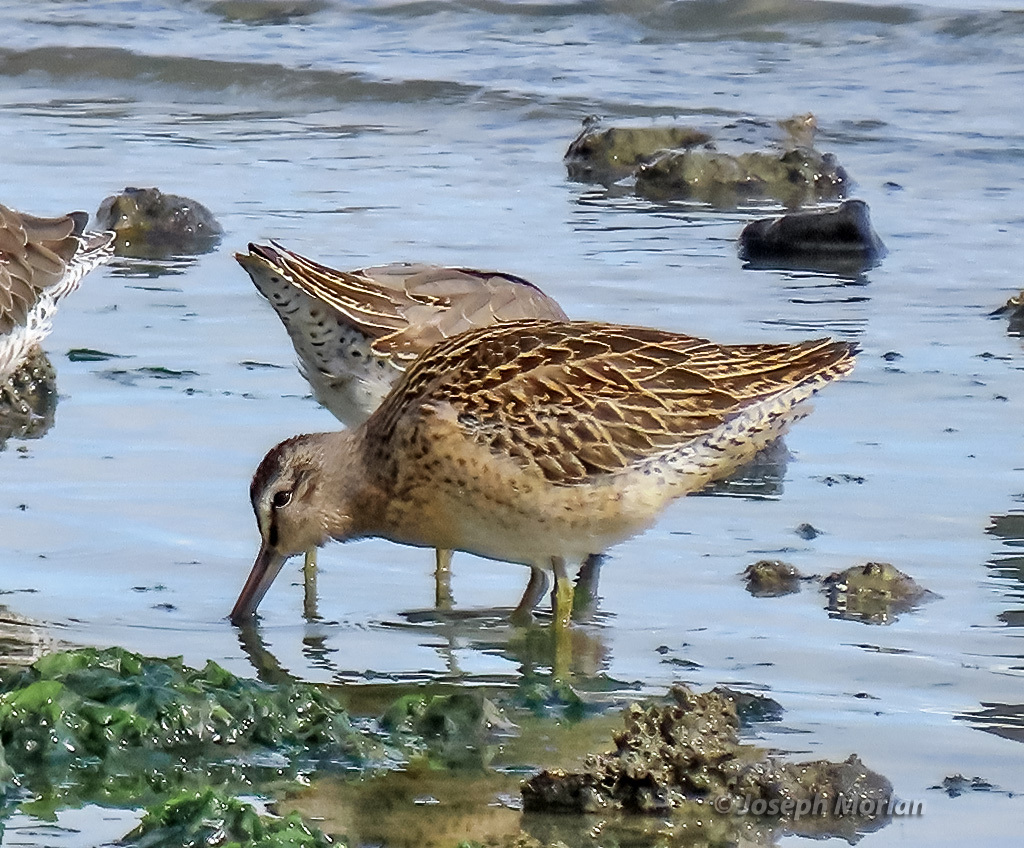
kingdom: Animalia
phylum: Chordata
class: Aves
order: Charadriiformes
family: Scolopacidae
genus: Limnodromus
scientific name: Limnodromus griseus
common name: Short-billed dowitcher
